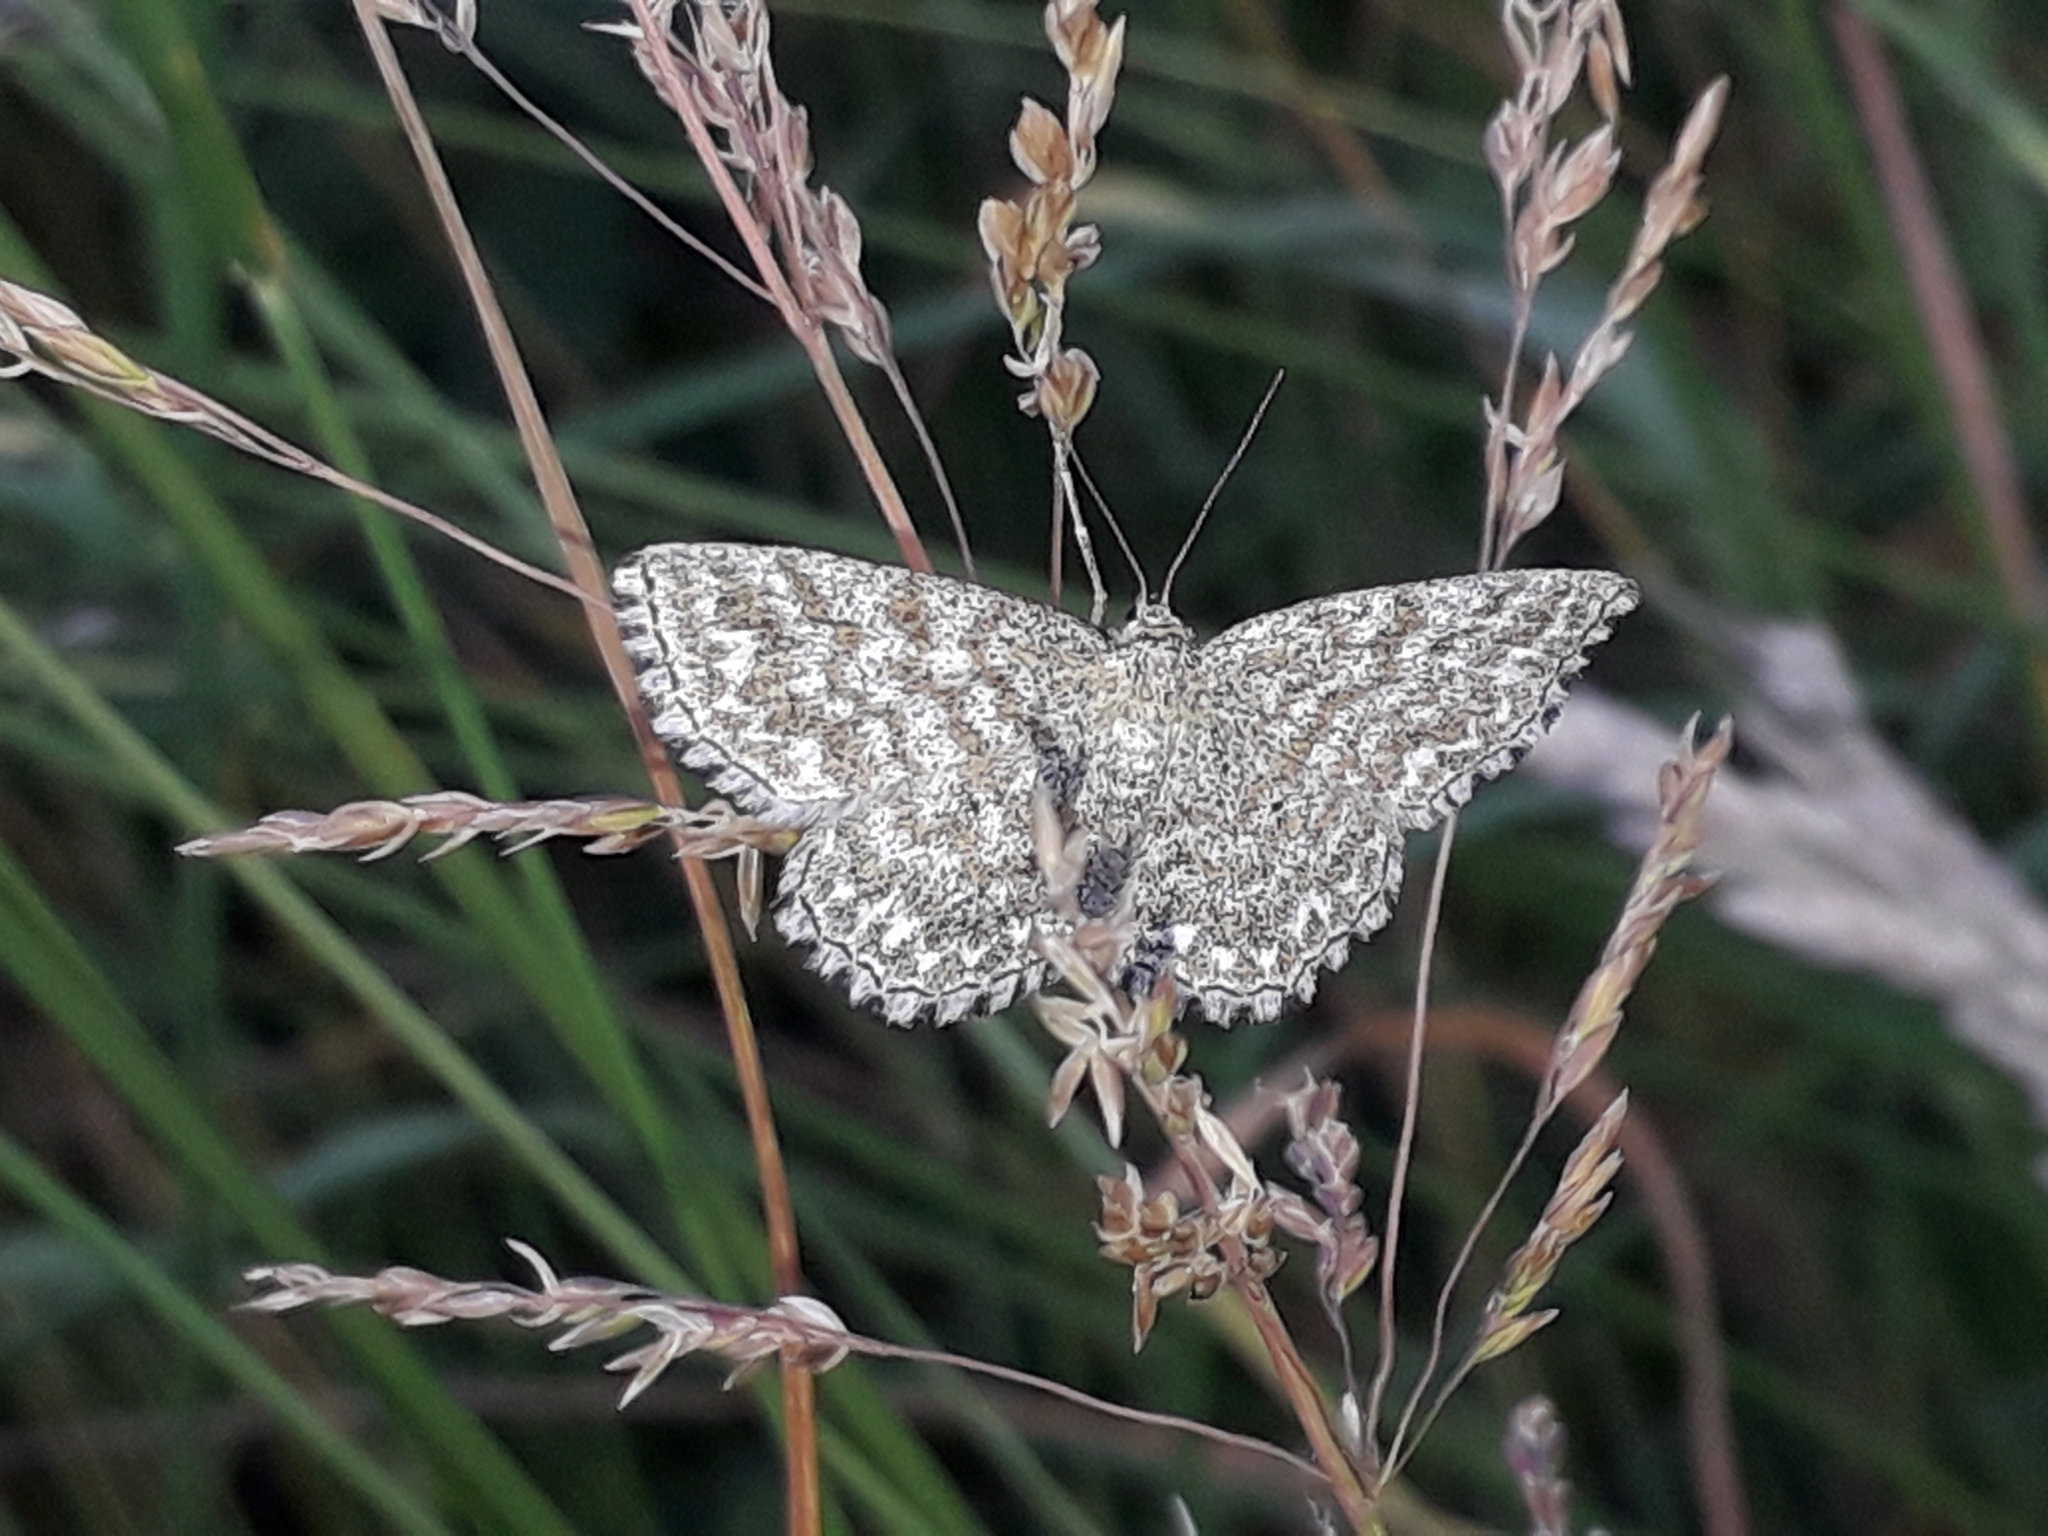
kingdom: Animalia
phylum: Arthropoda
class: Insecta
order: Lepidoptera
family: Geometridae
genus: Scopula
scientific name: Scopula immorata
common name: Lewes wave
